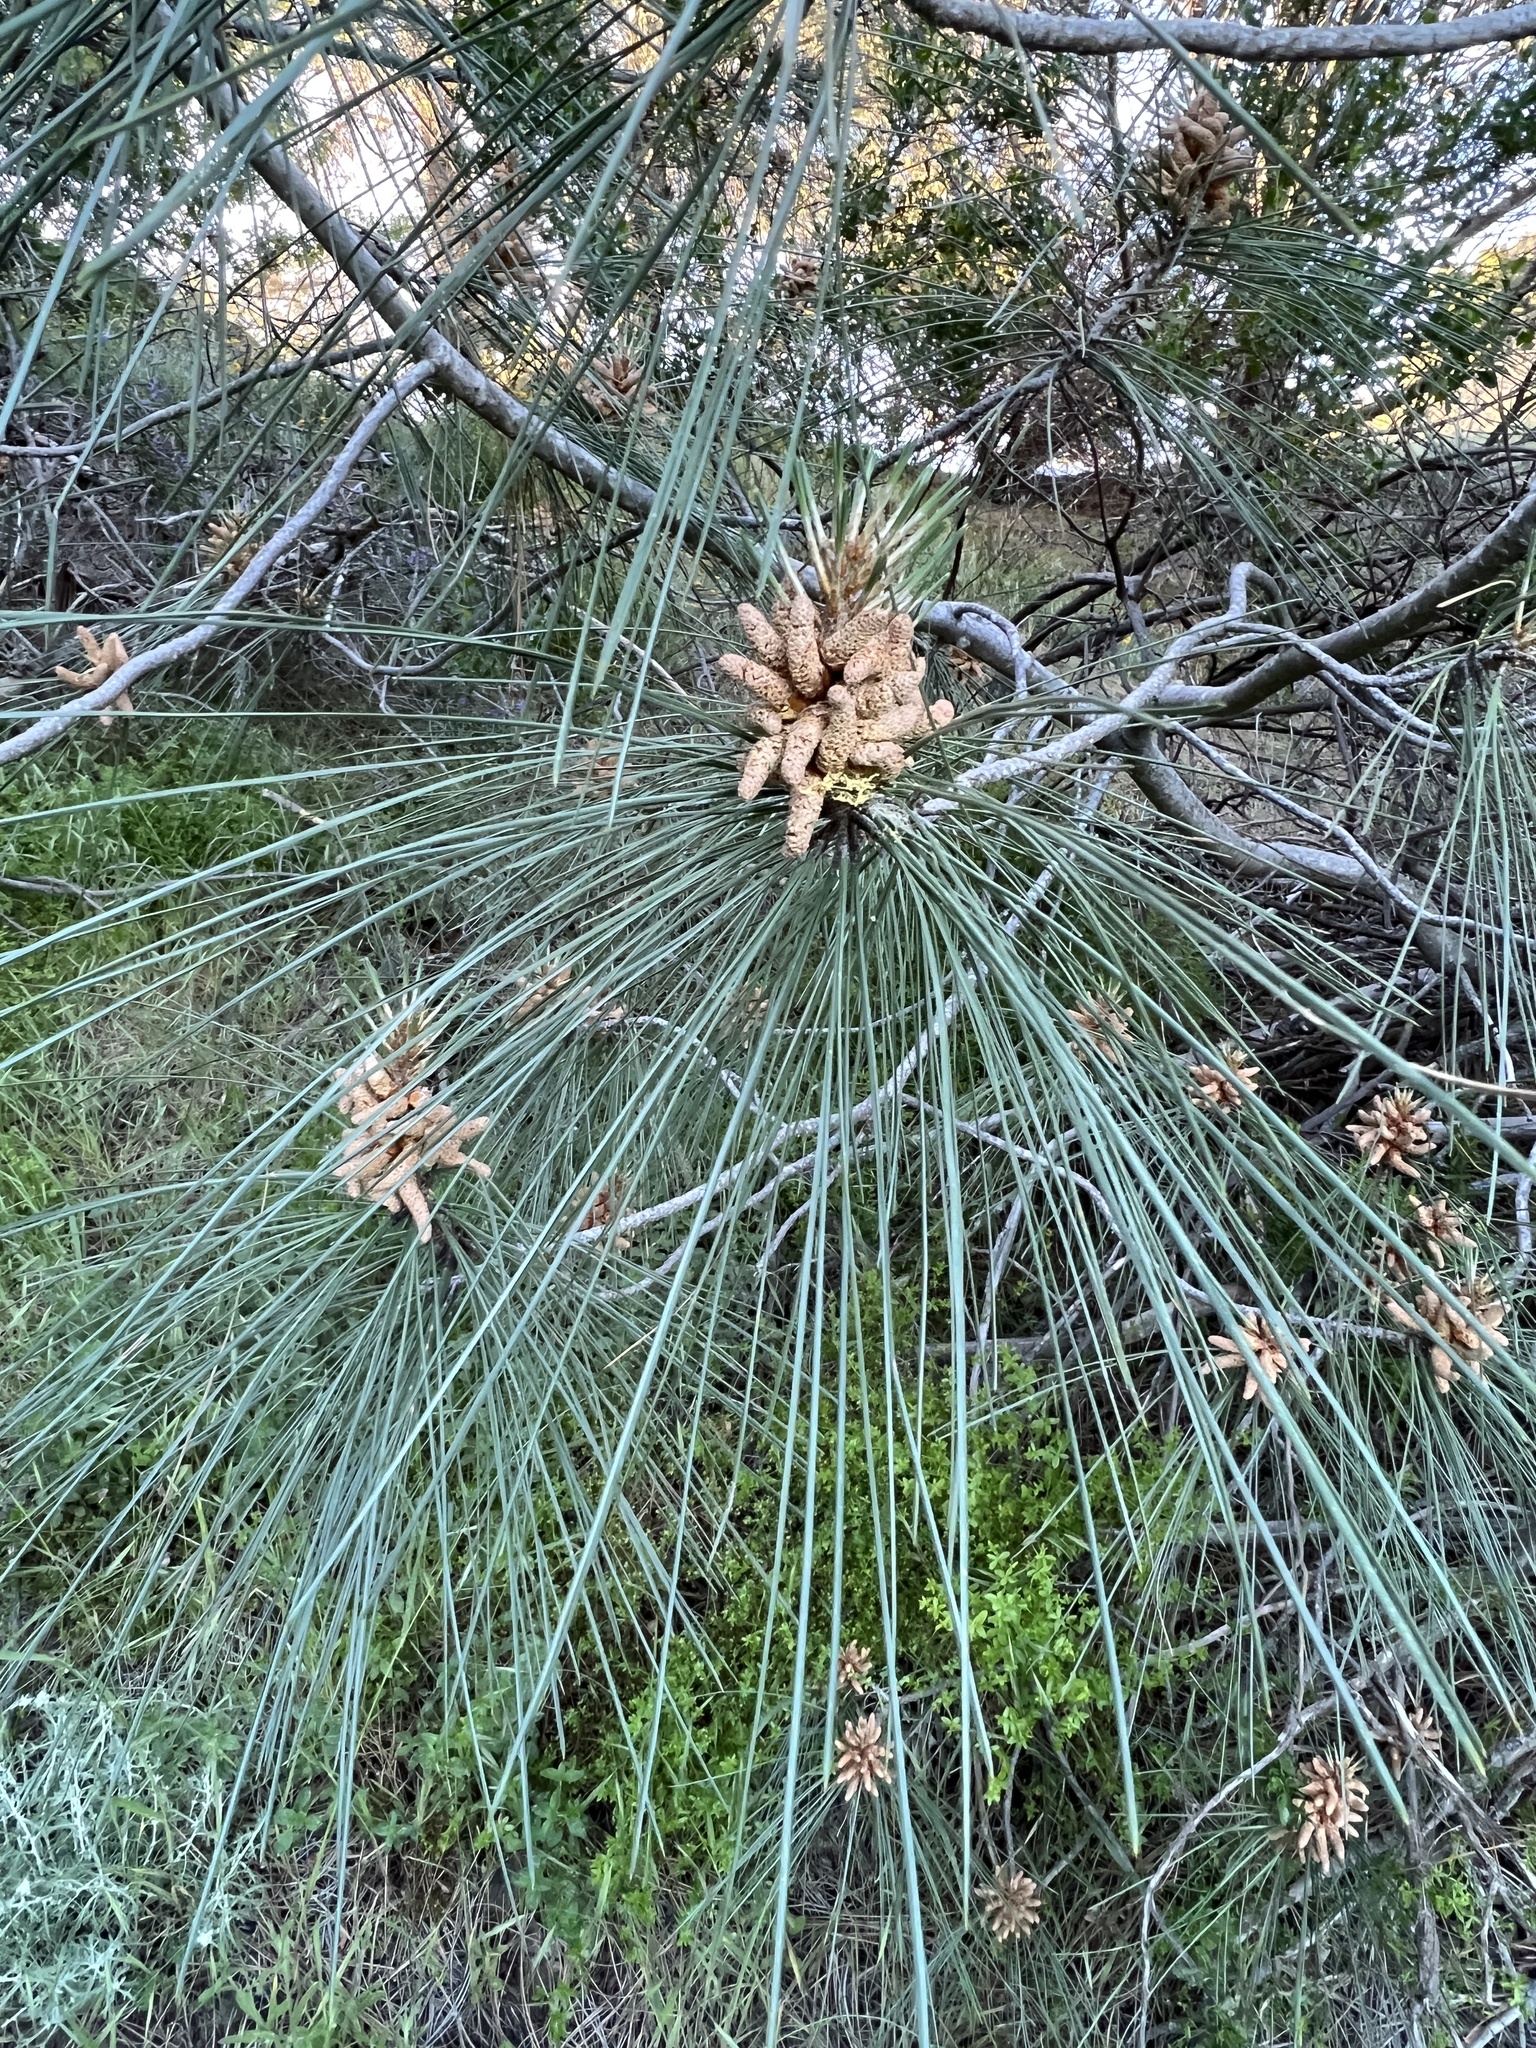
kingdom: Plantae
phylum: Tracheophyta
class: Pinopsida
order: Pinales
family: Pinaceae
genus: Pinus
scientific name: Pinus sabiniana
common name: Bull pine
